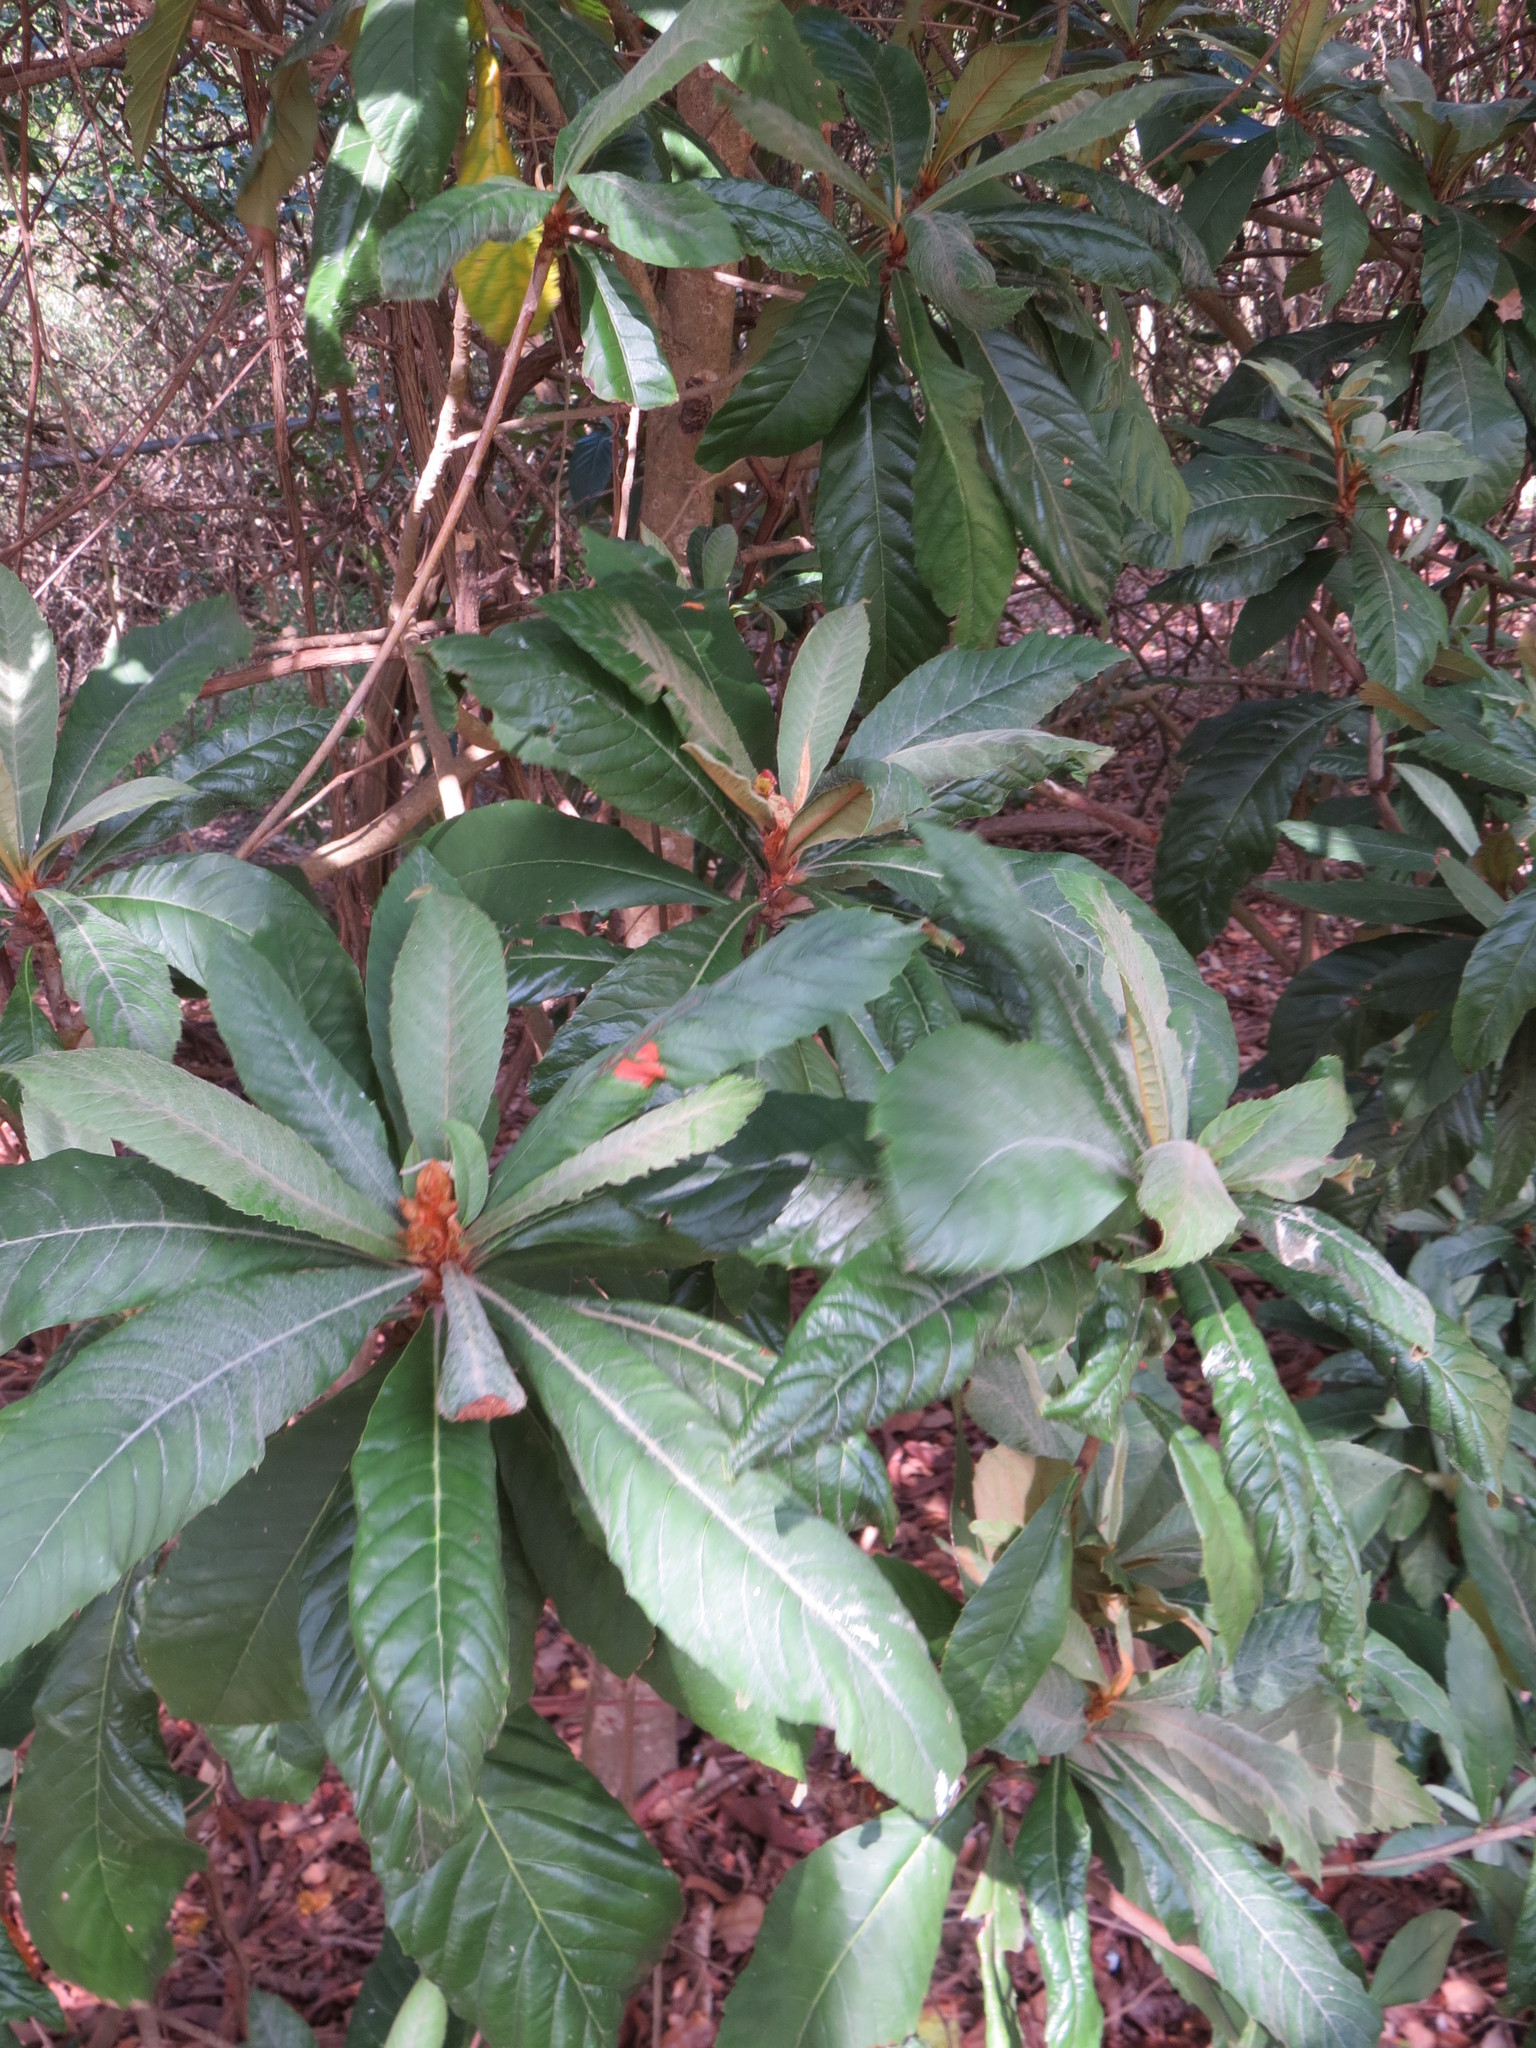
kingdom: Plantae
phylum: Tracheophyta
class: Magnoliopsida
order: Rosales
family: Rosaceae
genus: Rhaphiolepis
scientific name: Rhaphiolepis bibas
